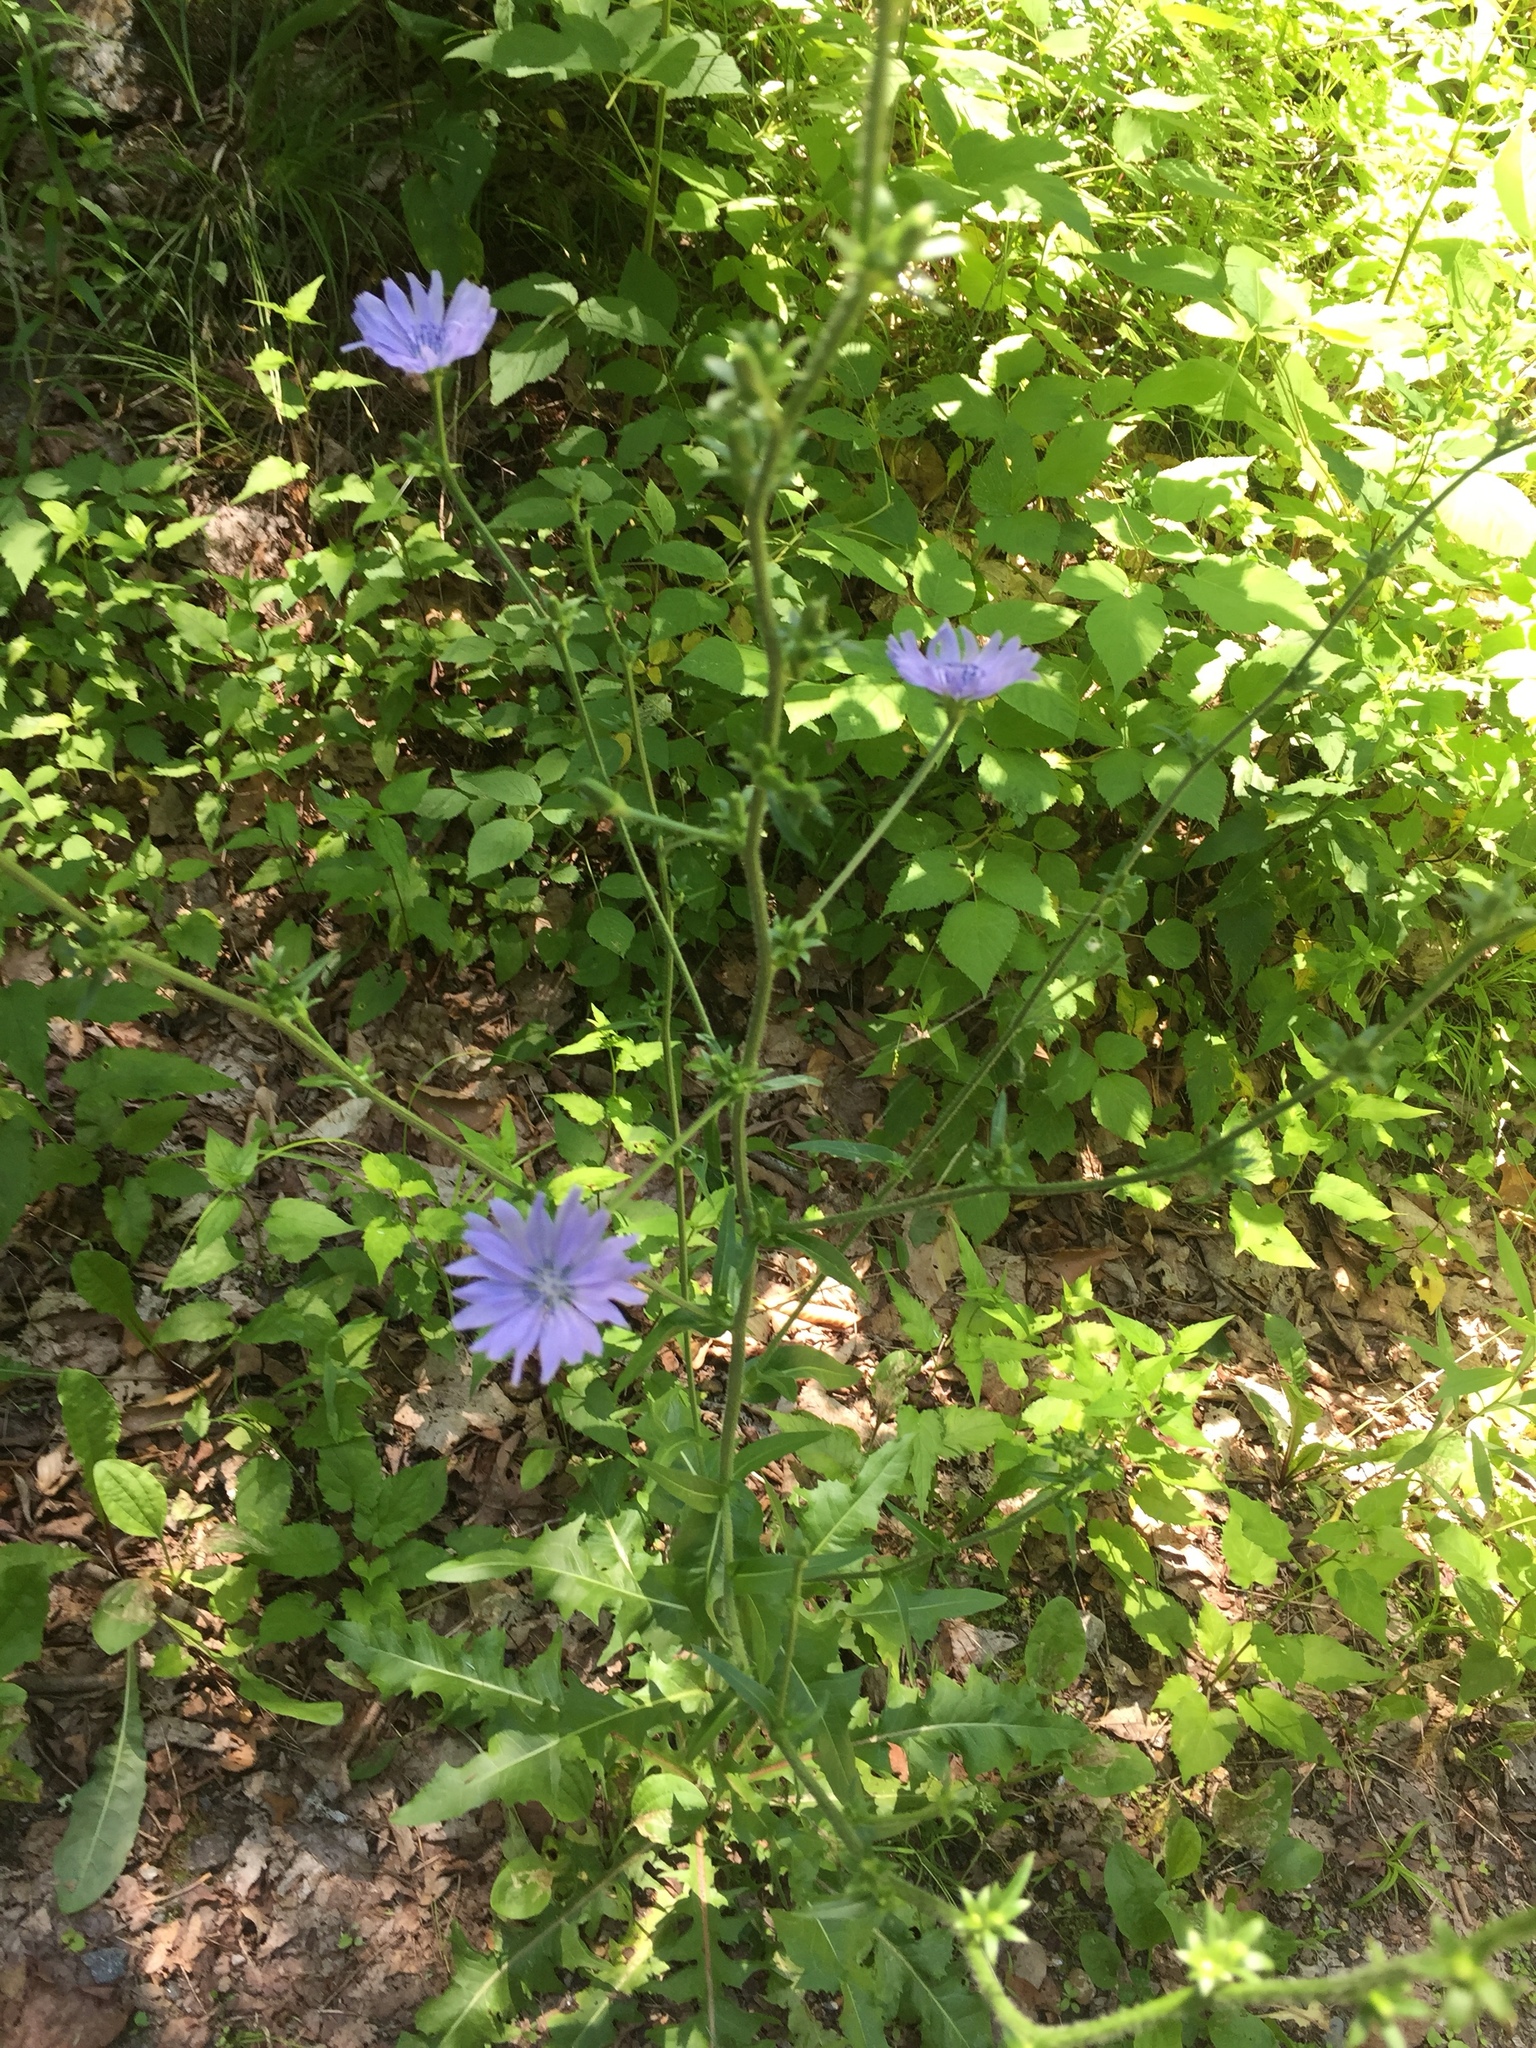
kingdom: Plantae
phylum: Tracheophyta
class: Magnoliopsida
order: Asterales
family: Asteraceae
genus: Cichorium
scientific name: Cichorium intybus
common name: Chicory
